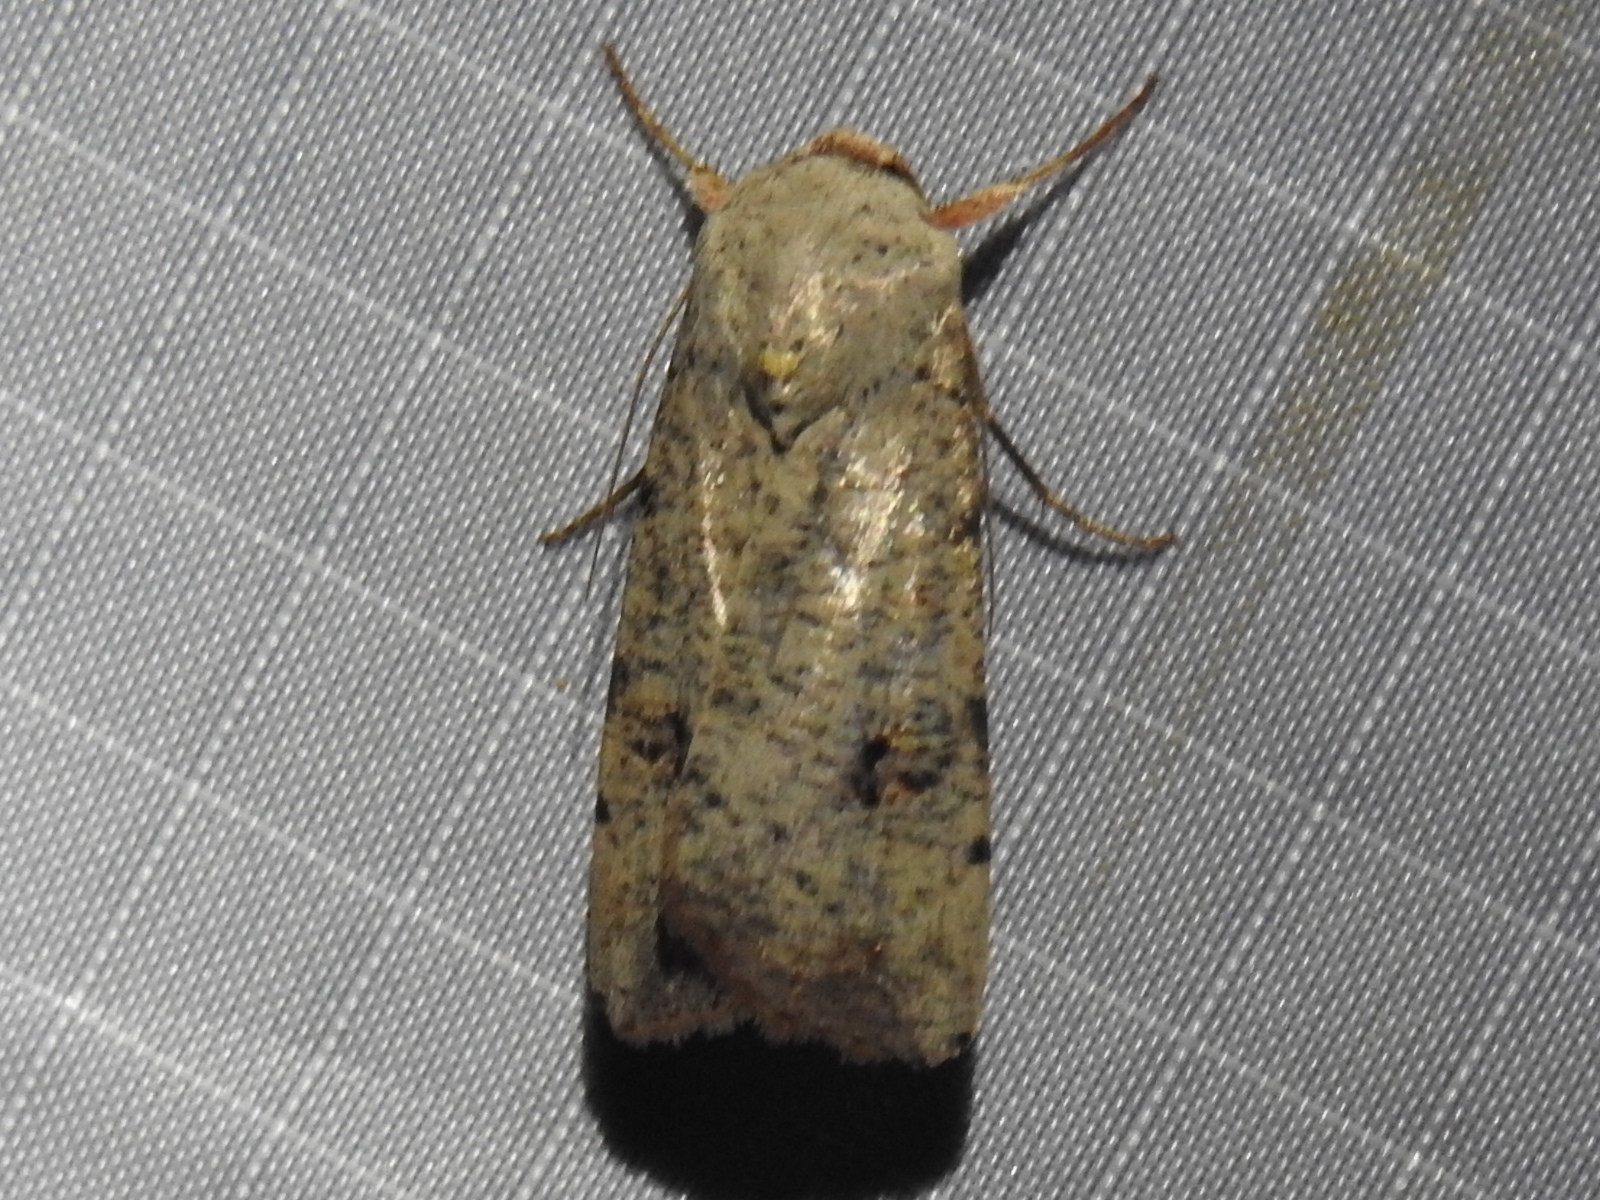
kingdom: Animalia
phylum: Arthropoda
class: Insecta
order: Lepidoptera
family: Noctuidae
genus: Anicla
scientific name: Anicla infecta
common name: Green cutworm
